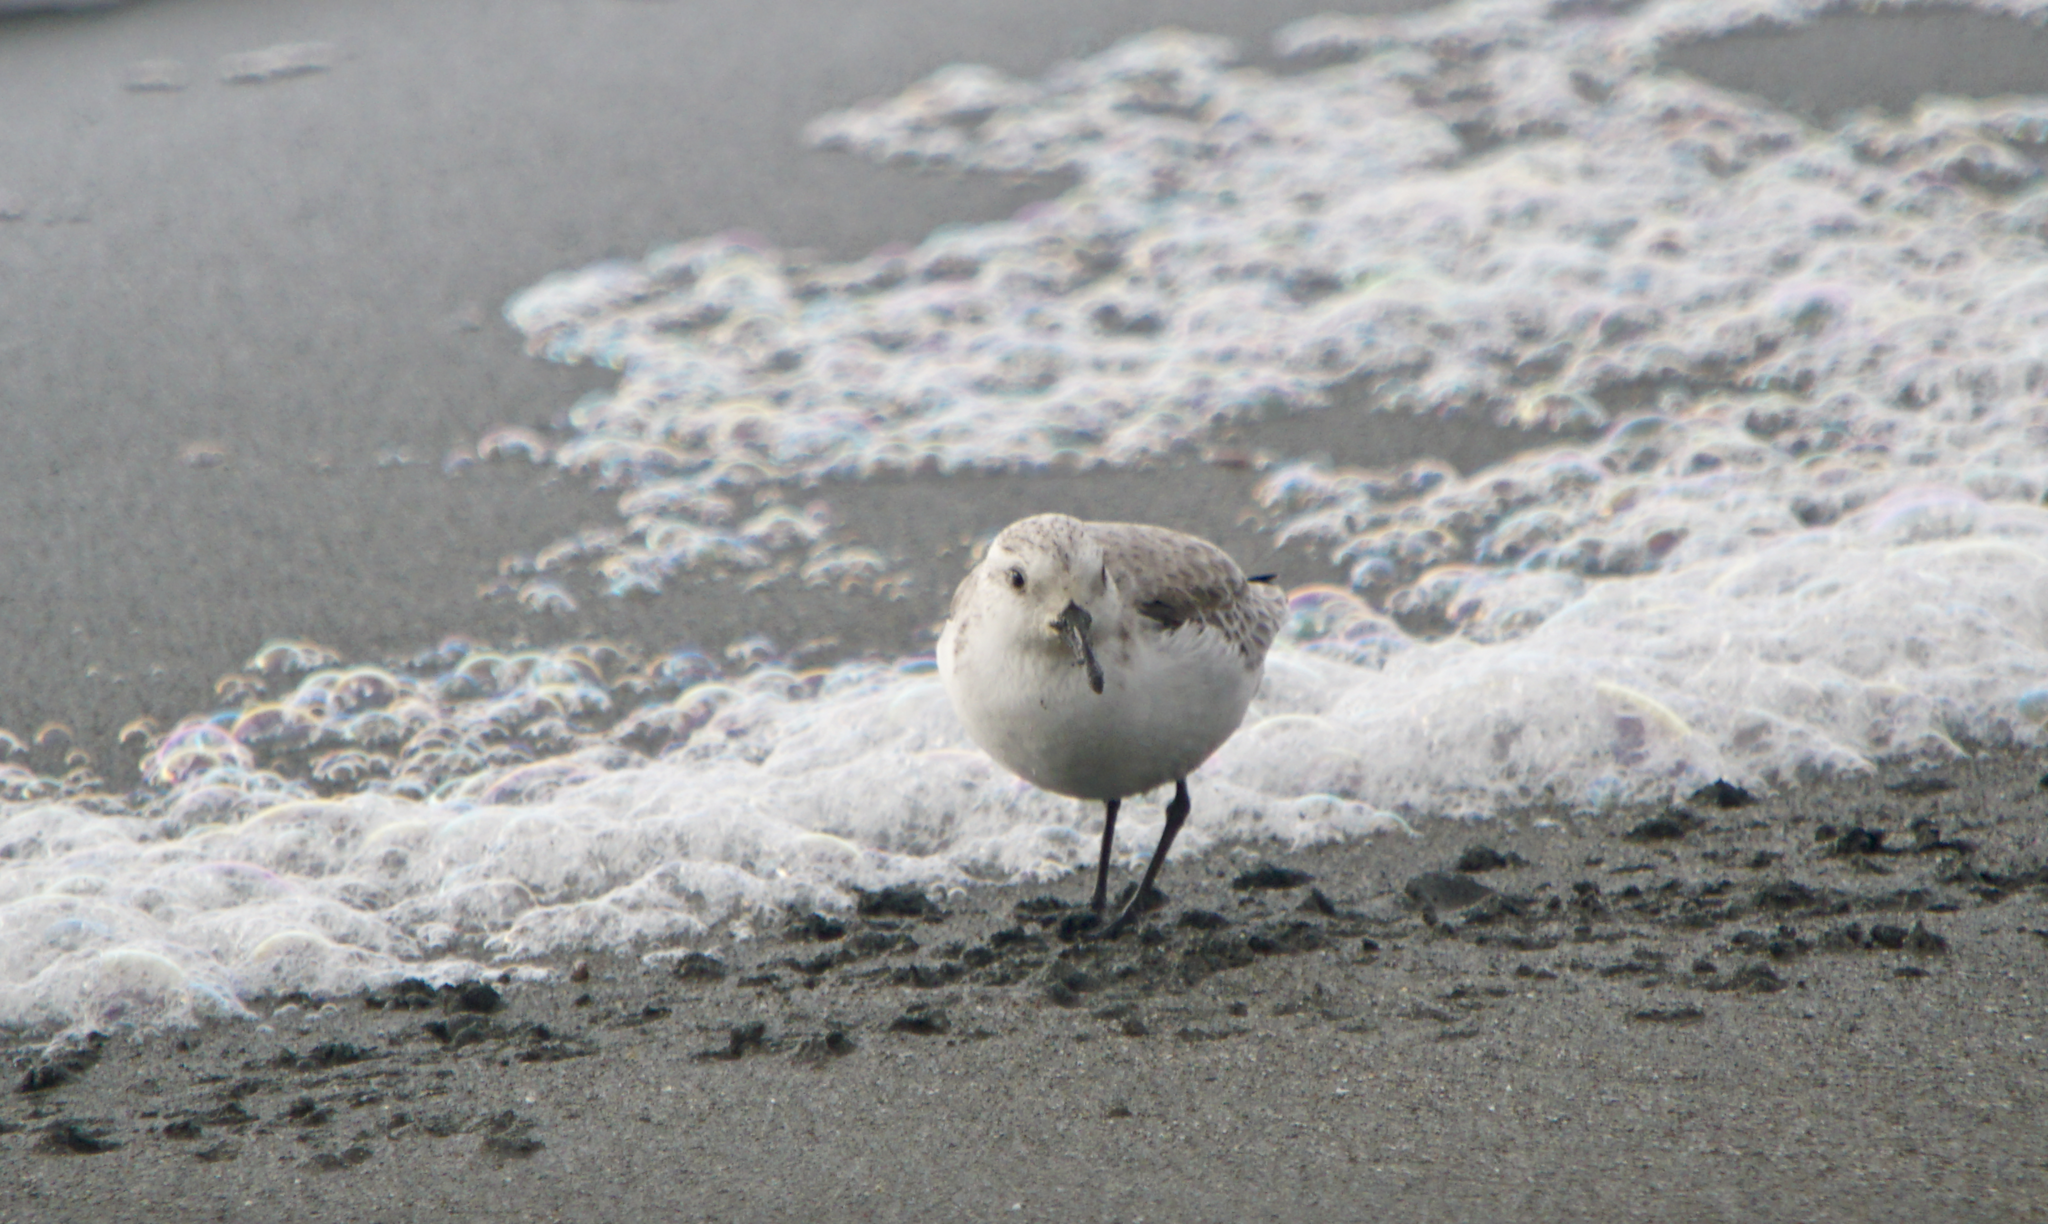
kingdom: Animalia
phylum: Chordata
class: Aves
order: Charadriiformes
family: Scolopacidae
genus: Calidris
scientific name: Calidris alba
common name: Sanderling
